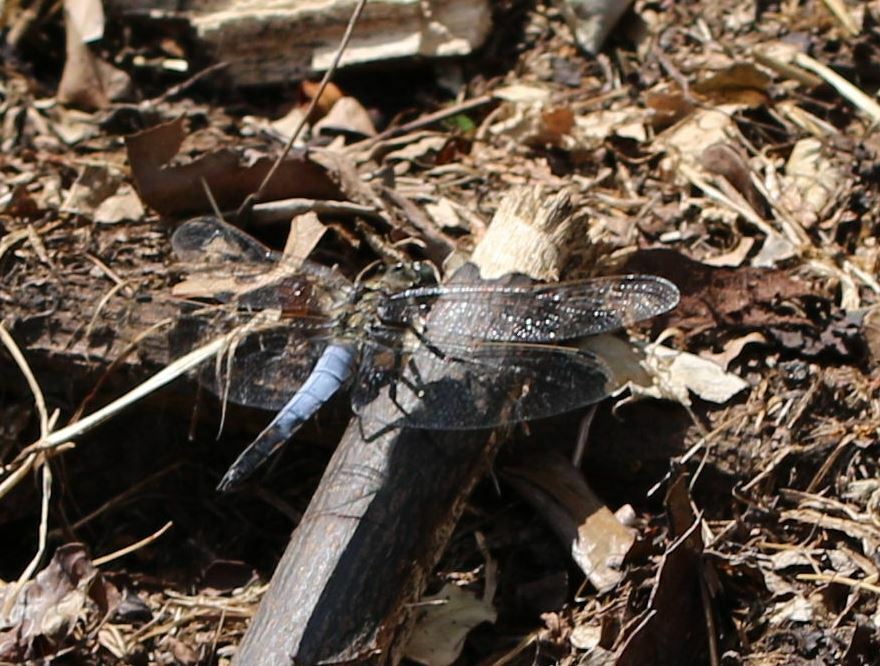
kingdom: Animalia
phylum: Arthropoda
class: Insecta
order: Odonata
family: Libellulidae
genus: Orthetrum
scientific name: Orthetrum cancellatum
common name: Black-tailed skimmer
